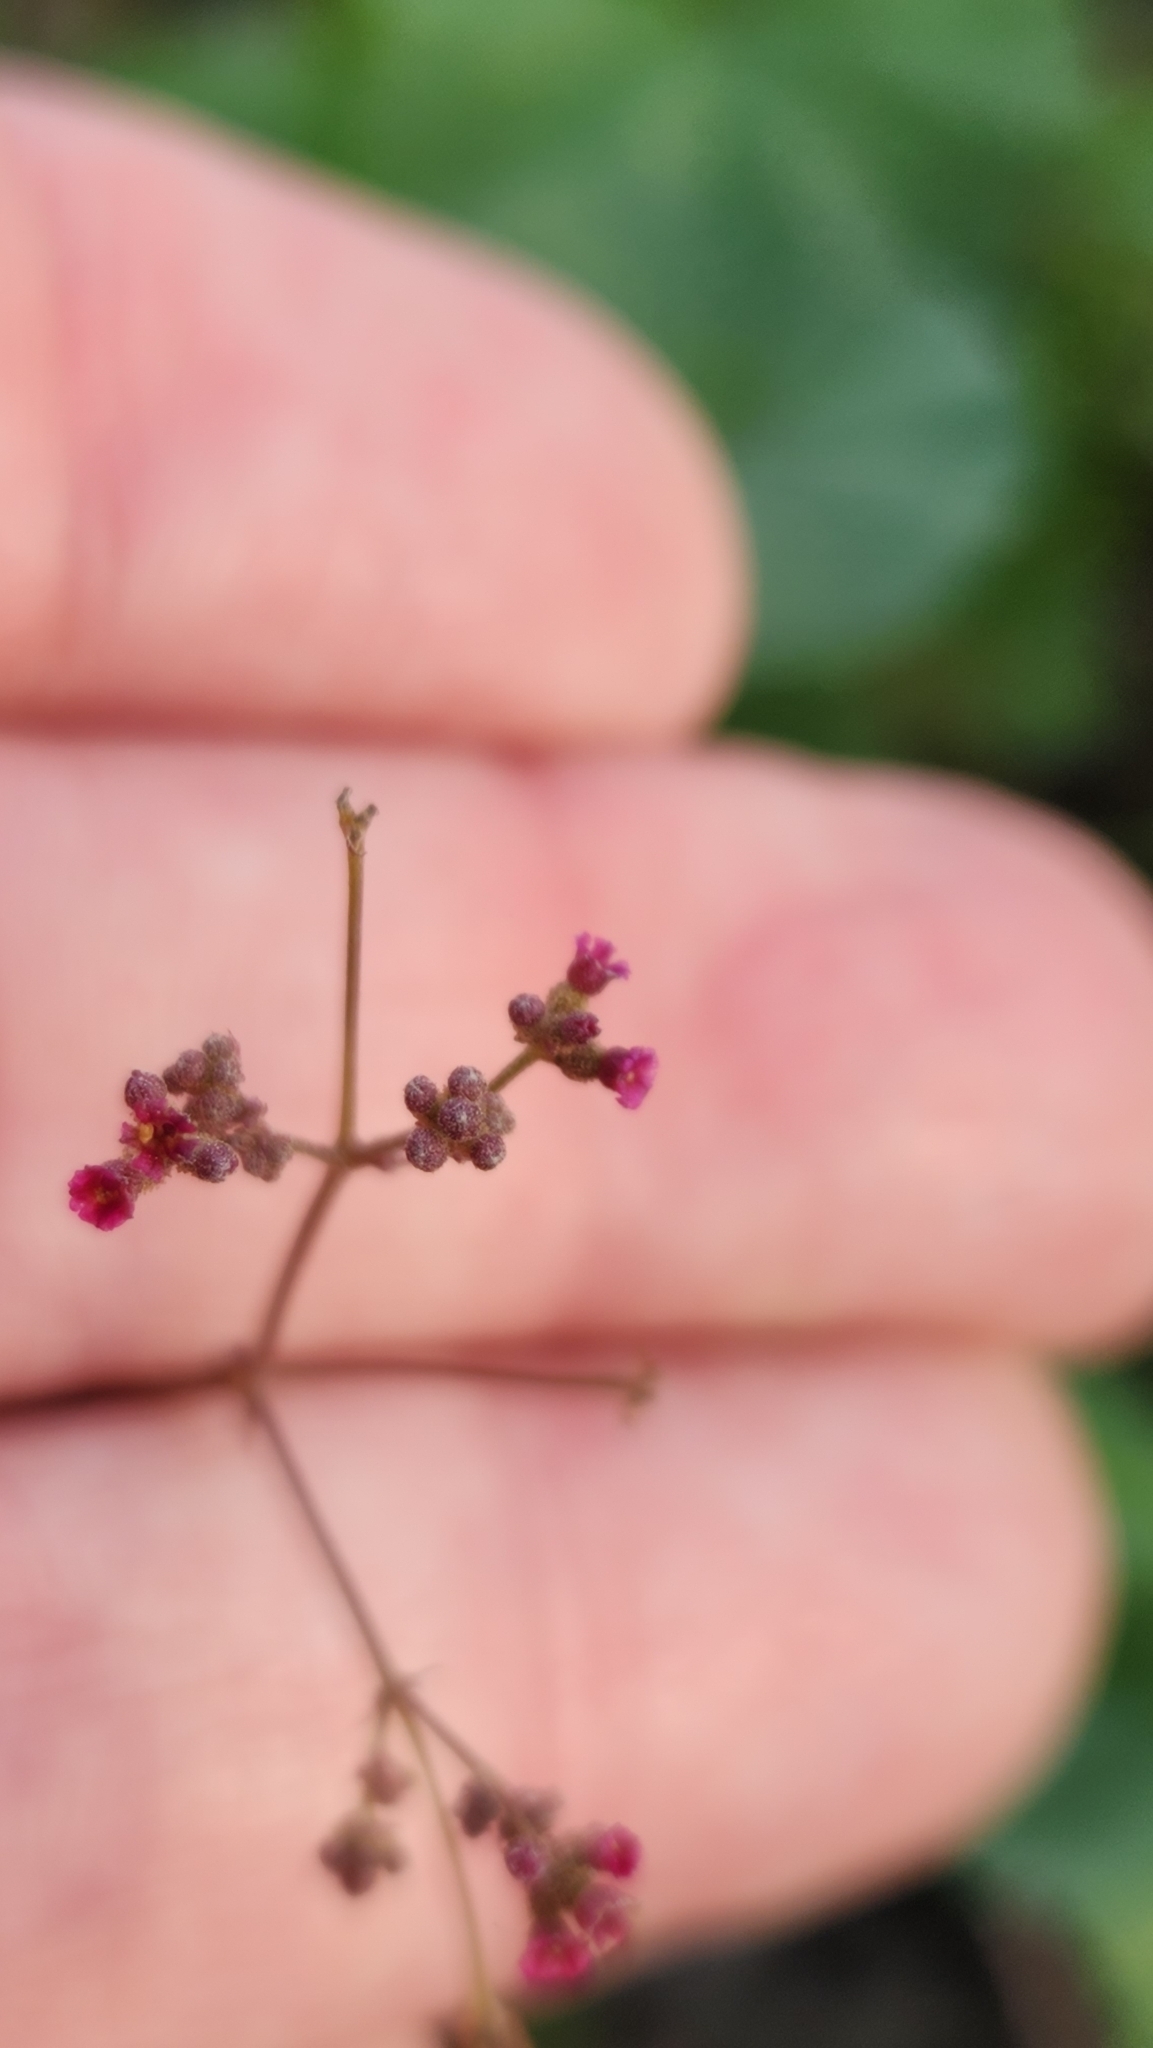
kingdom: Plantae
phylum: Tracheophyta
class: Magnoliopsida
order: Caryophyllales
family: Nyctaginaceae
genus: Boerhavia
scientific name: Boerhavia coccinea
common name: Scarlet spiderling
